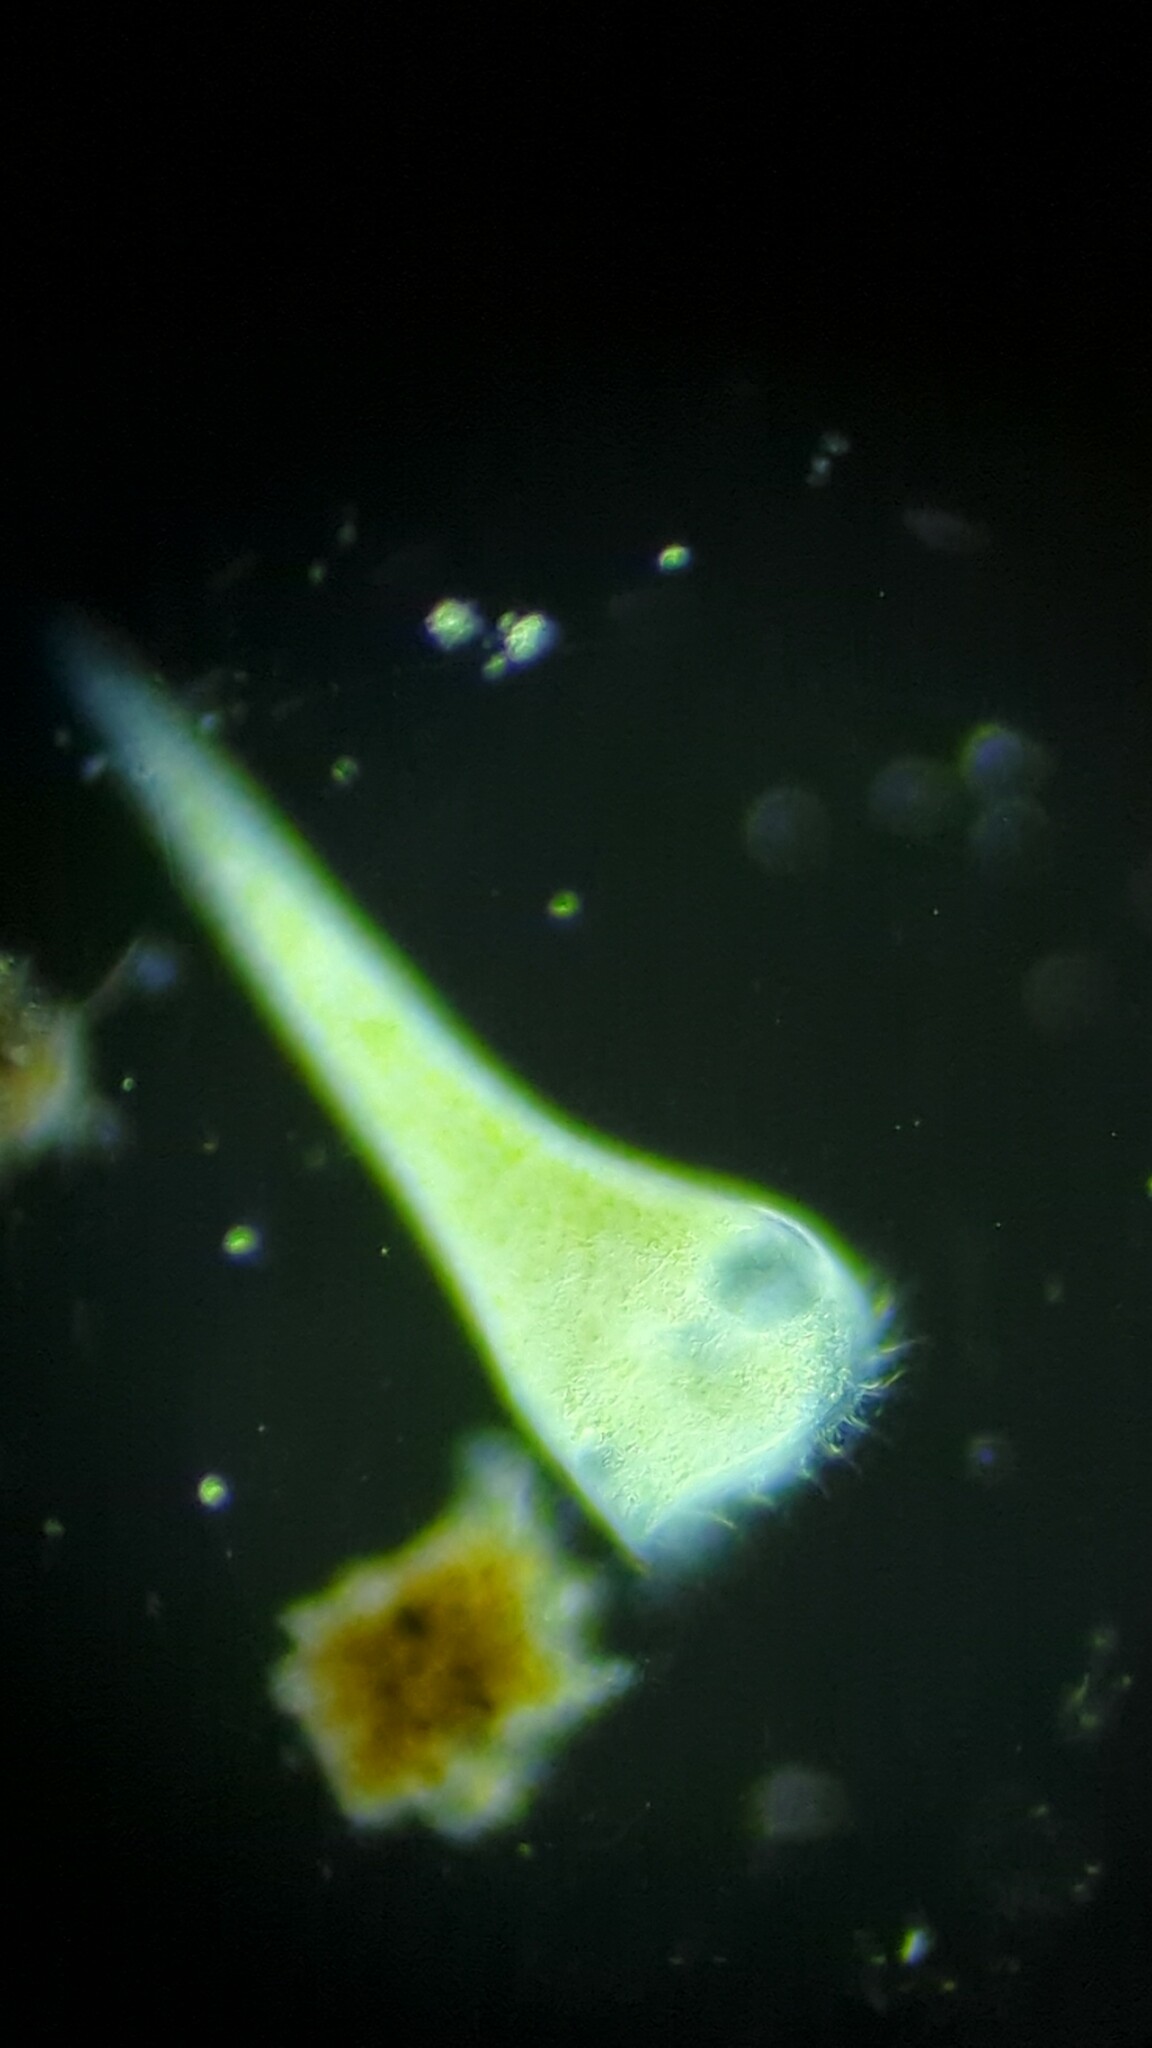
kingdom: Chromista
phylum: Ciliophora
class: Heterotrichea
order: Heterotrichida
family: Stentoridae
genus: Stentor
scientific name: Stentor polymorphus
